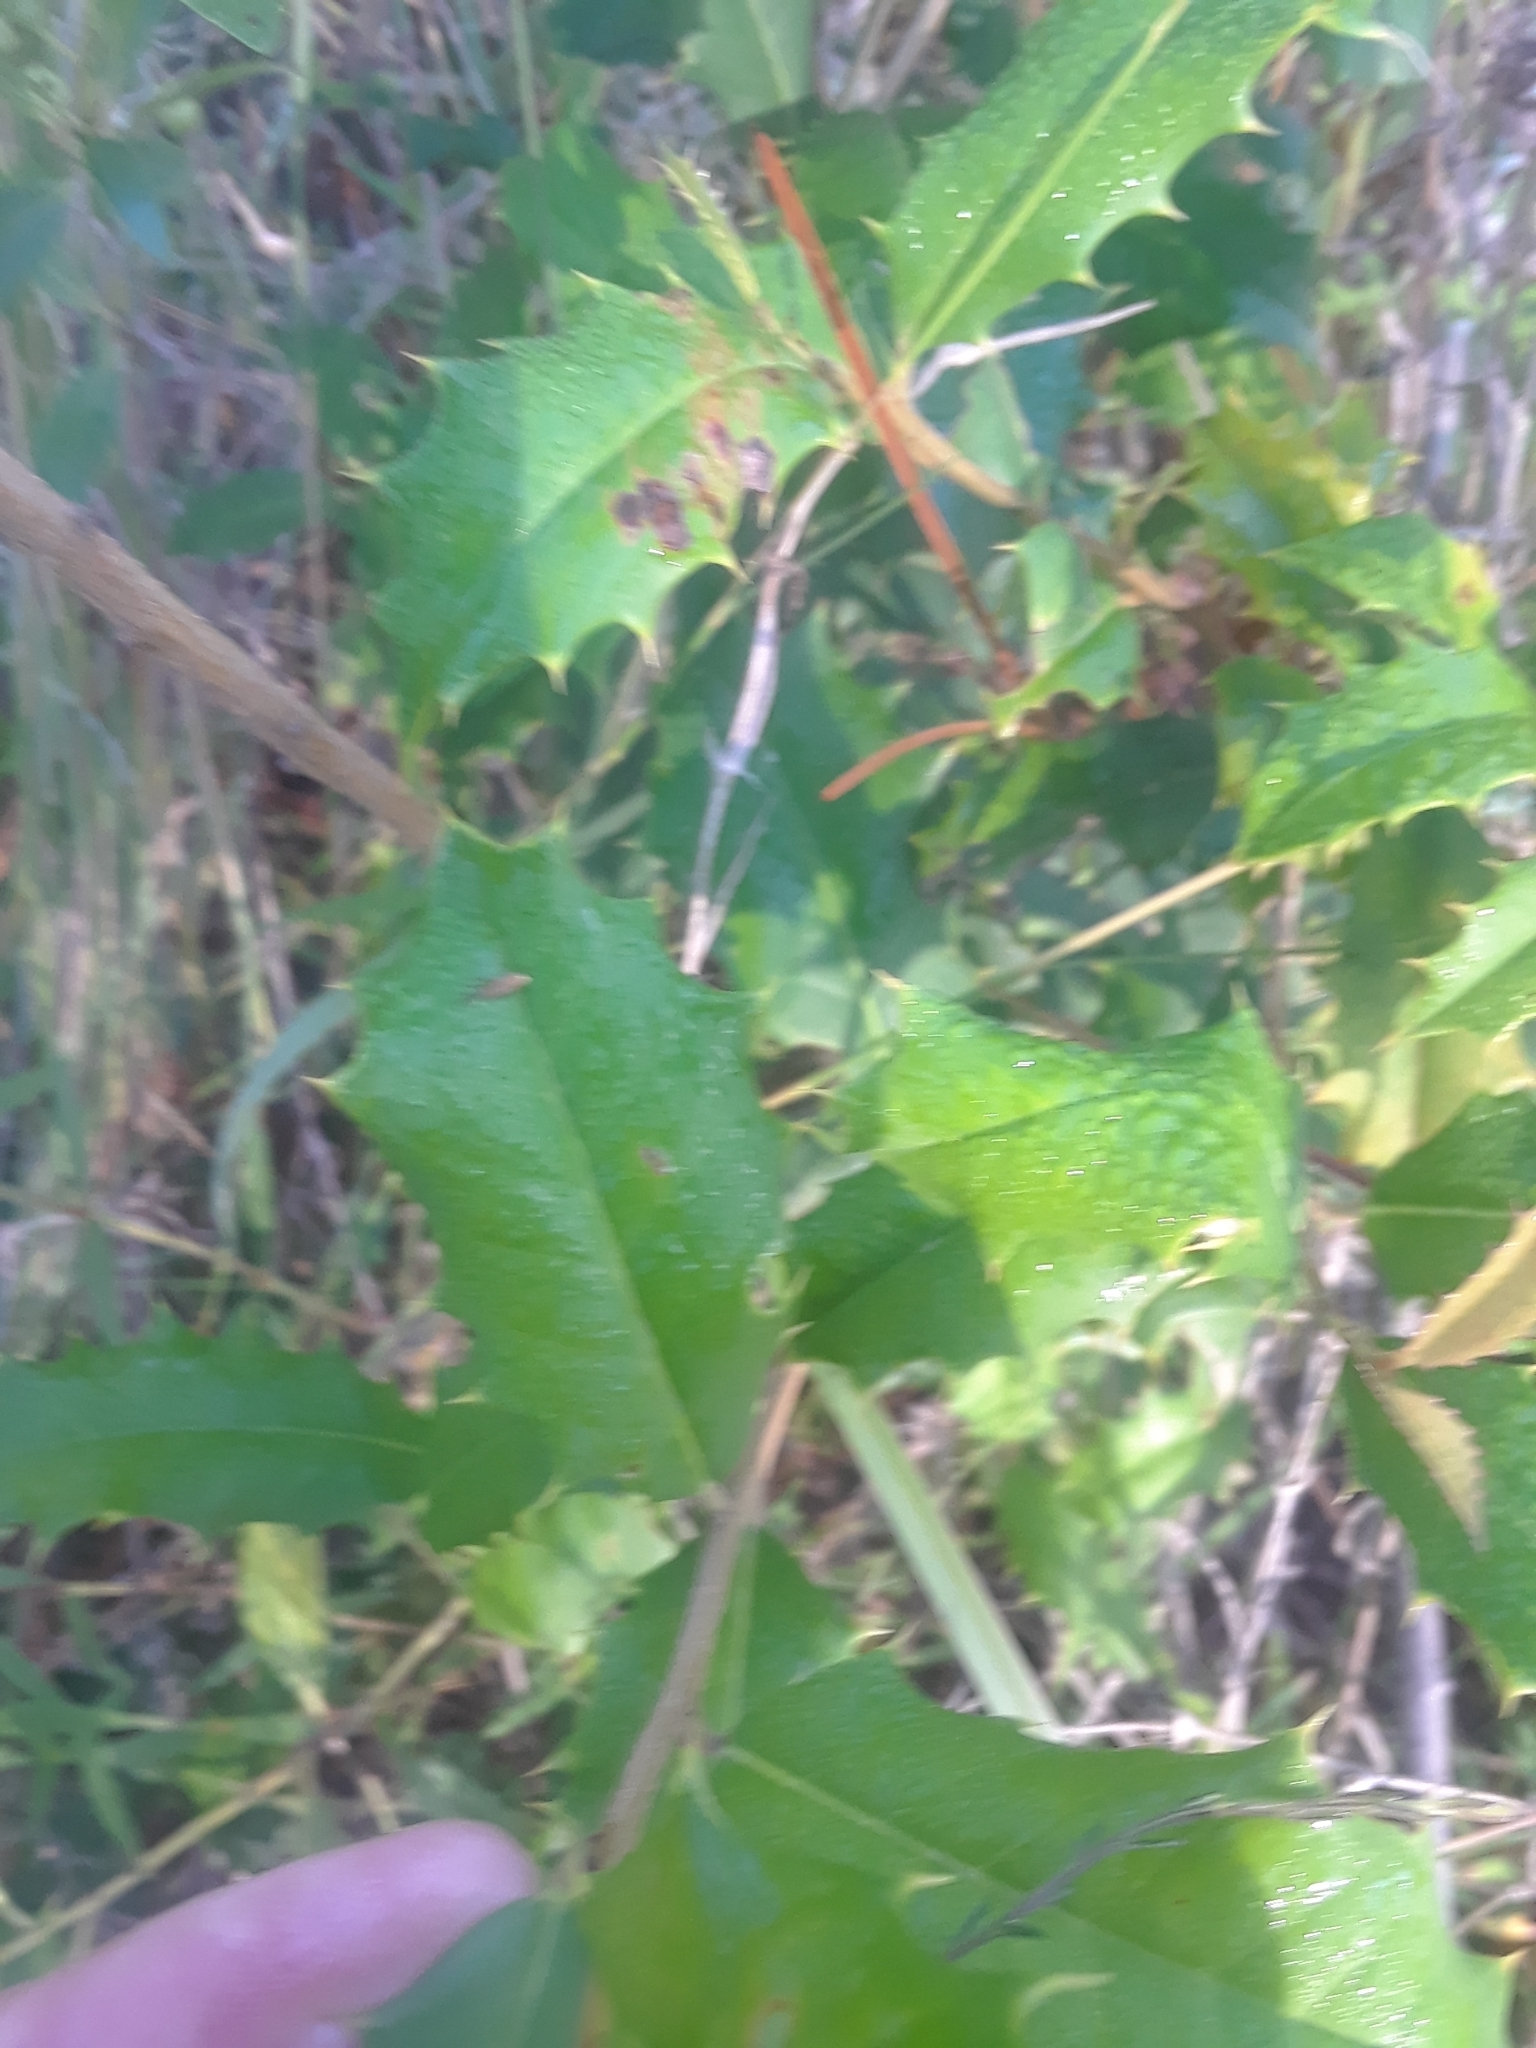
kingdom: Plantae
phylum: Tracheophyta
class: Magnoliopsida
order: Aquifoliales
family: Aquifoliaceae
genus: Ilex
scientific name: Ilex opaca
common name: American holly
